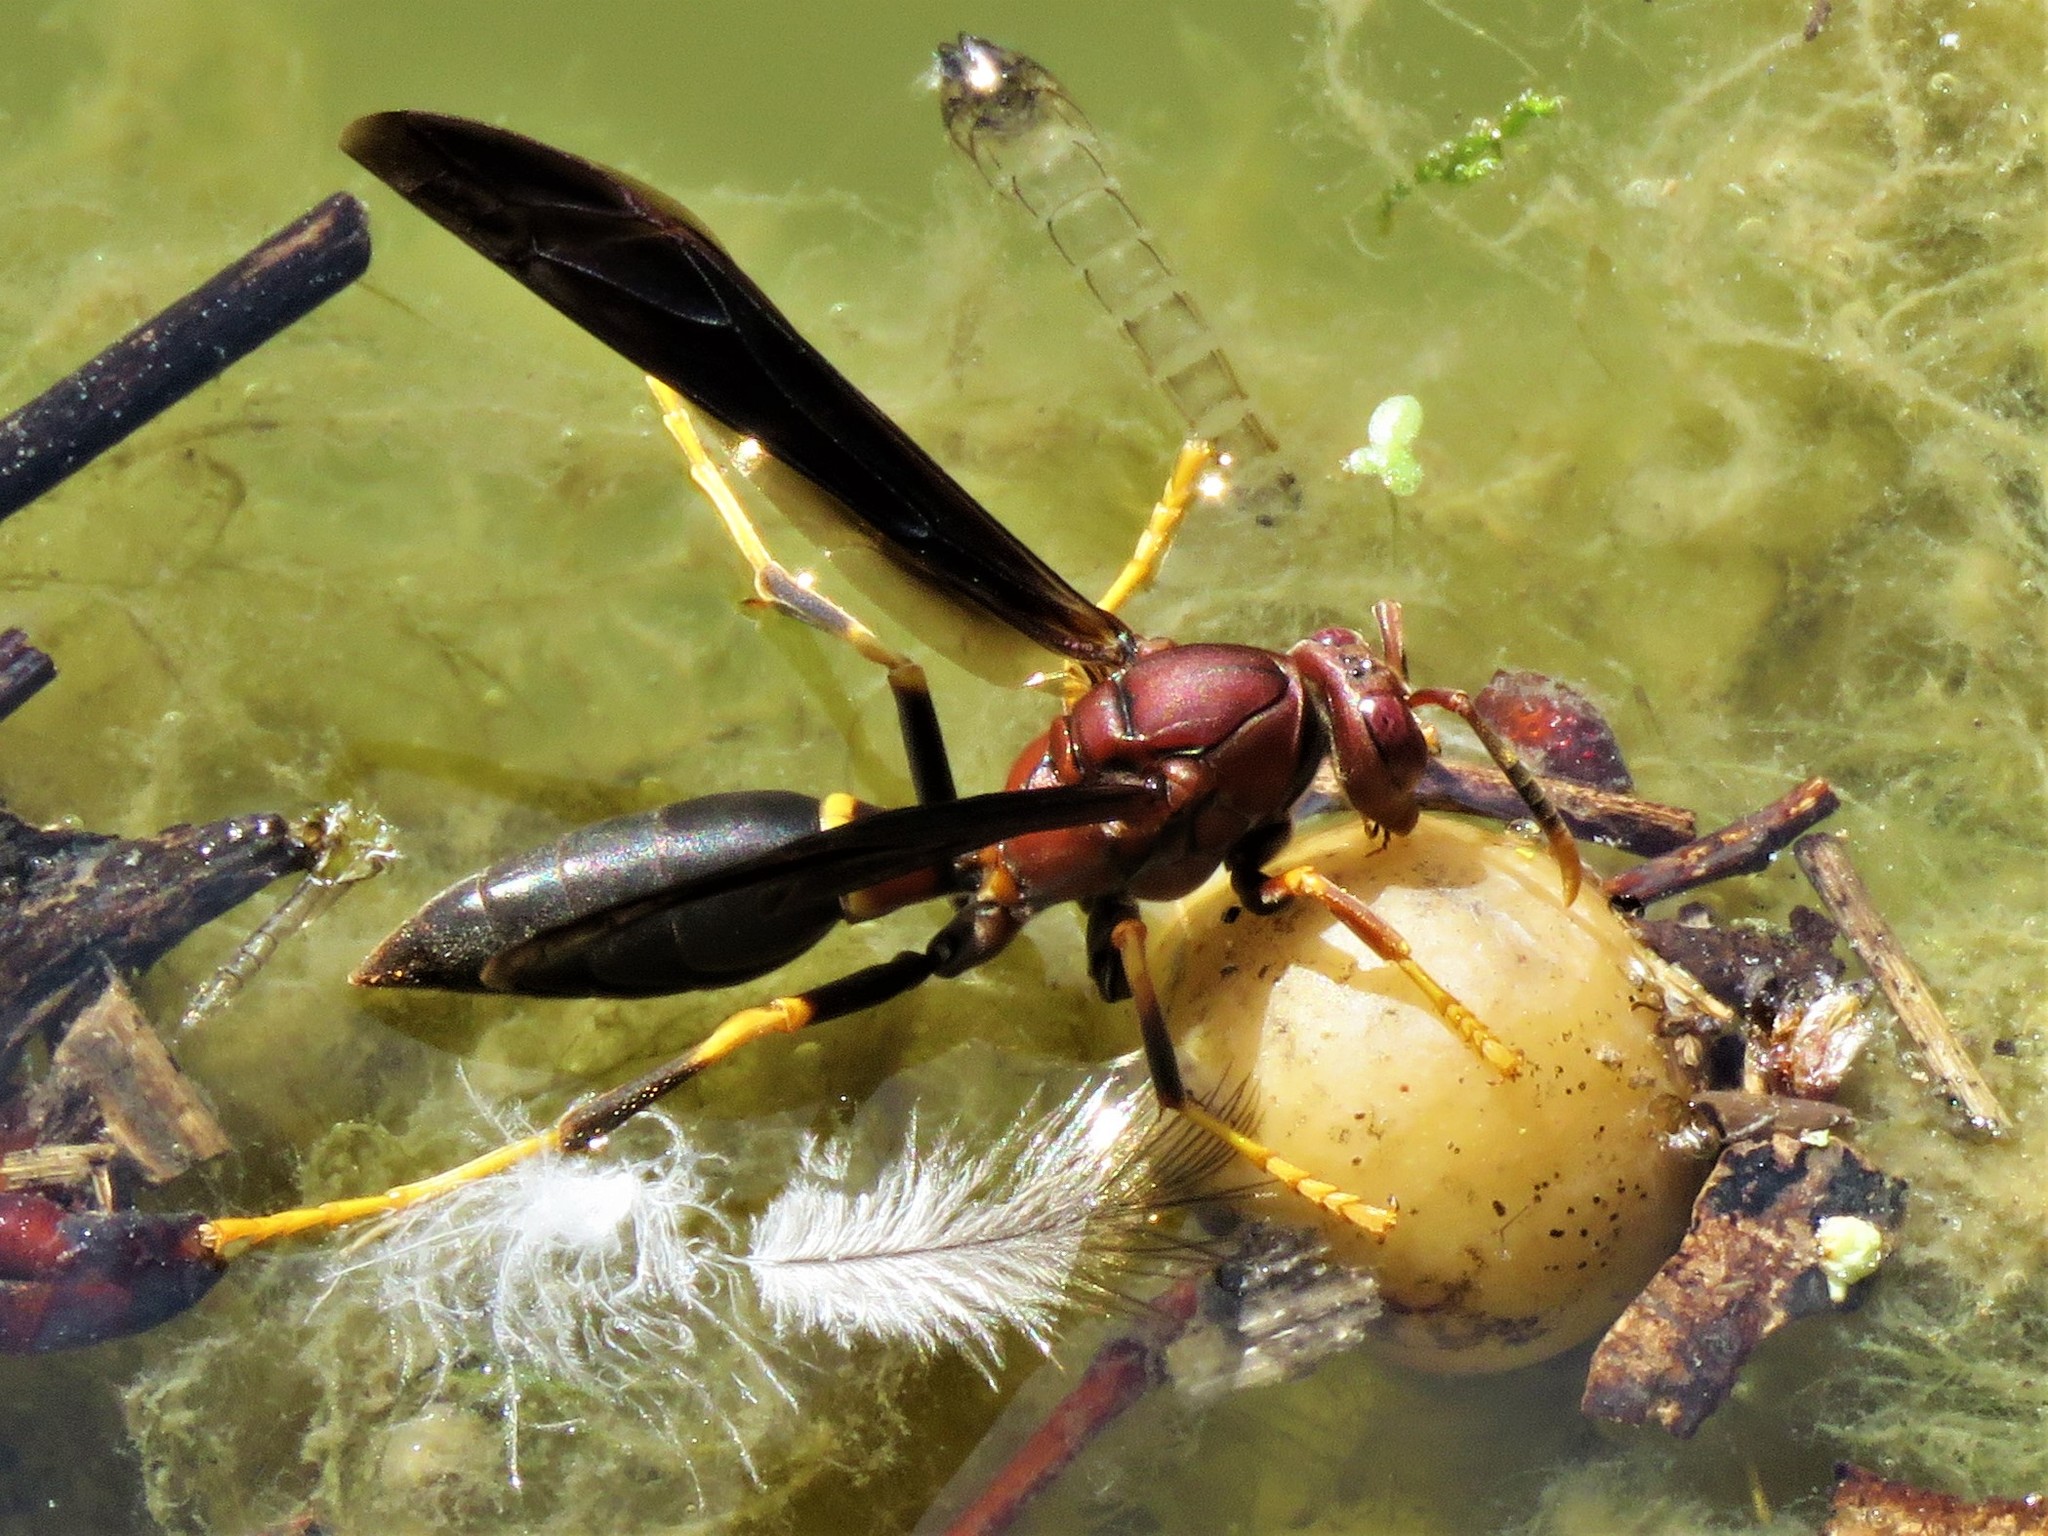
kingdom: Animalia
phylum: Arthropoda
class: Insecta
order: Hymenoptera
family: Eumenidae
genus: Polistes
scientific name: Polistes annularis
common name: Ringed paper wasp
